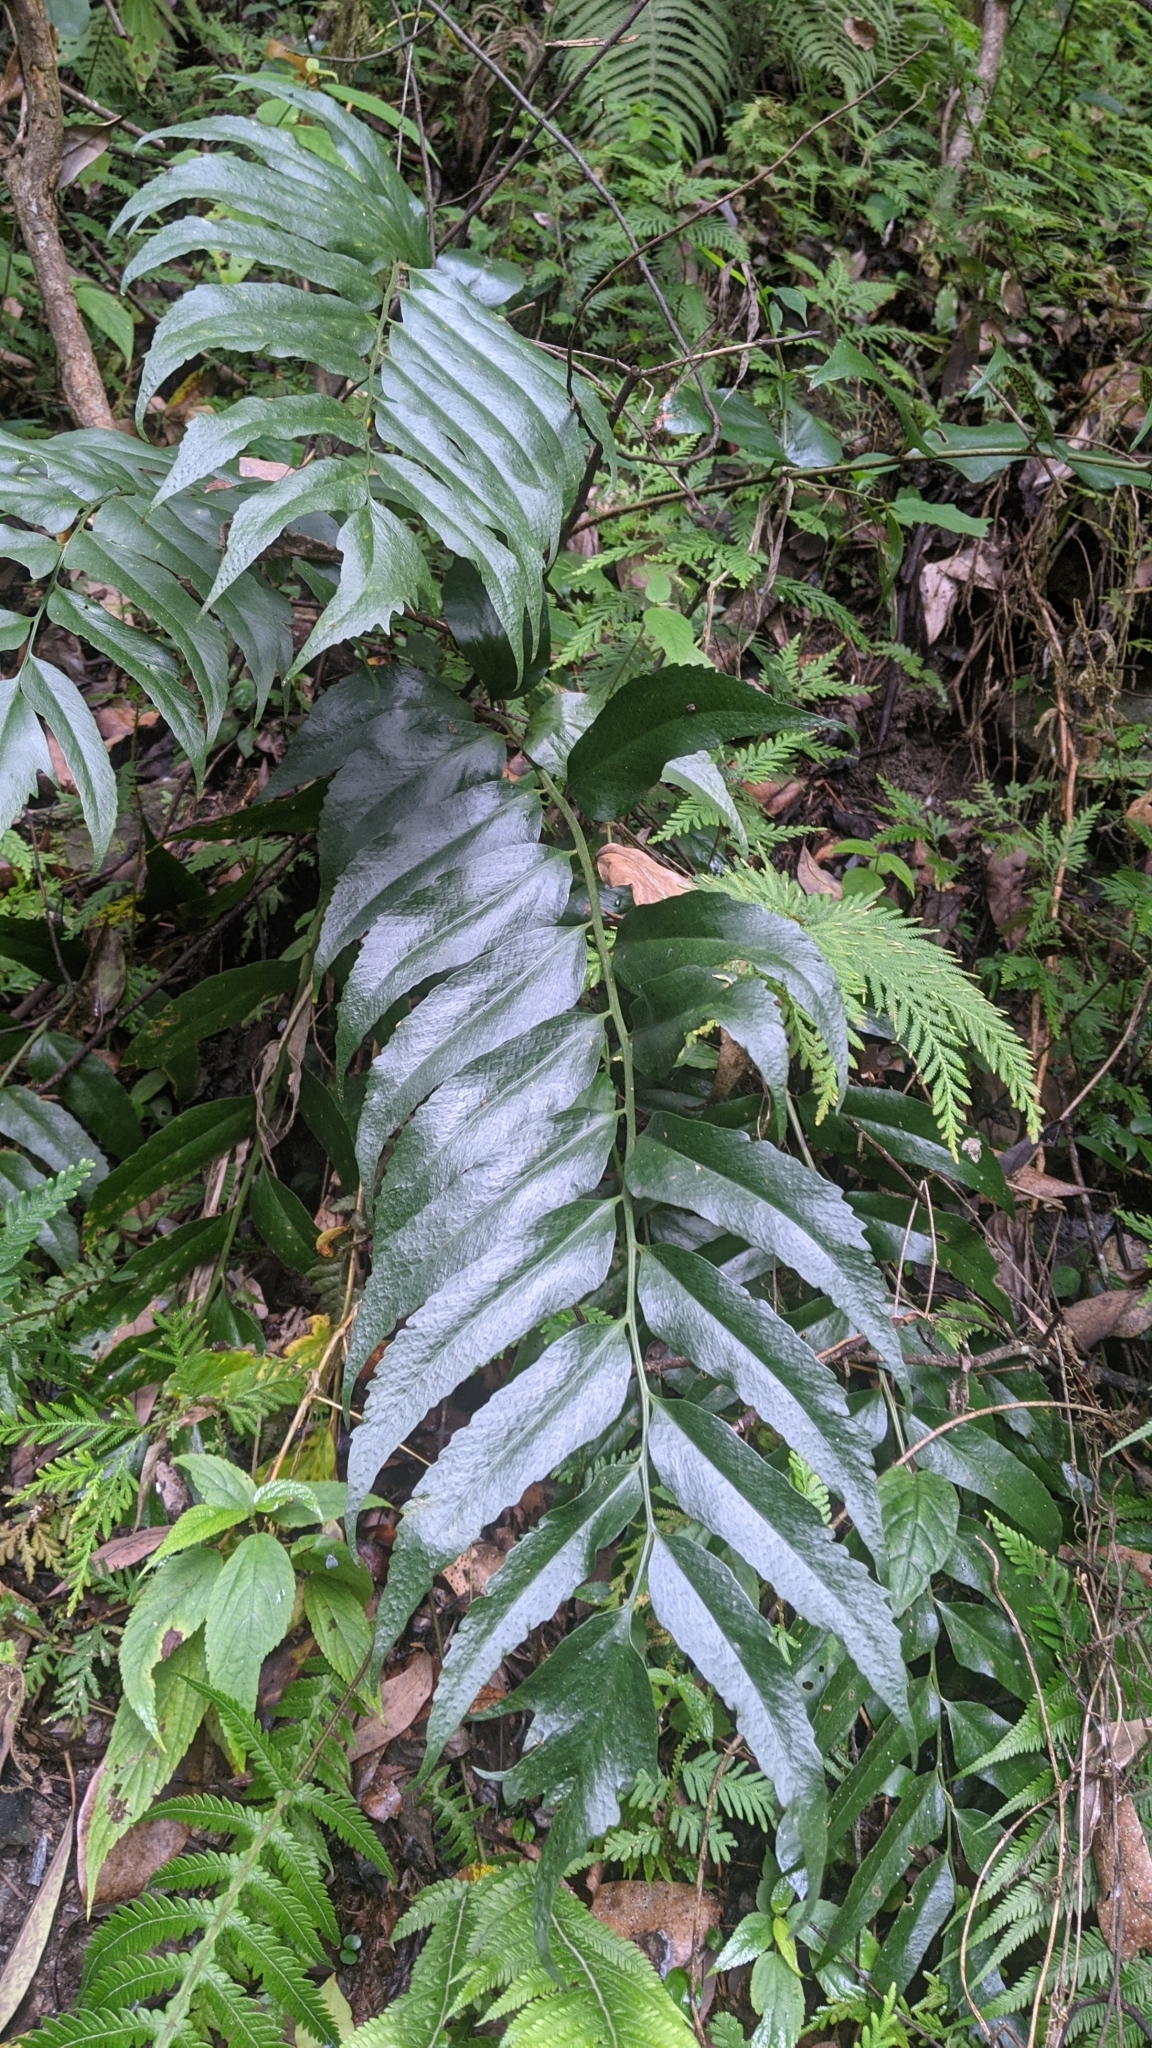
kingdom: Plantae
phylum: Tracheophyta
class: Polypodiopsida
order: Polypodiales
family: Dryopteridaceae
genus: Cyrtomium
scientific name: Cyrtomium devexiscapulae
